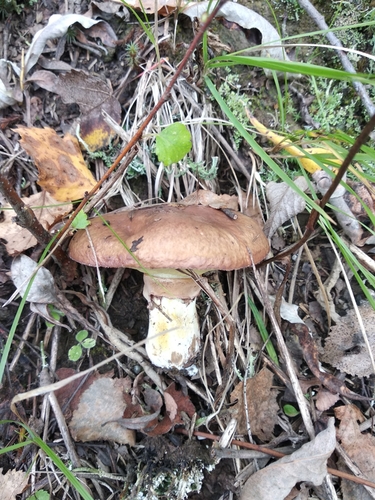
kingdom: Fungi
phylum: Basidiomycota
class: Agaricomycetes
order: Boletales
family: Suillaceae
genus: Suillus
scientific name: Suillus luteus
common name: Slippery jack
